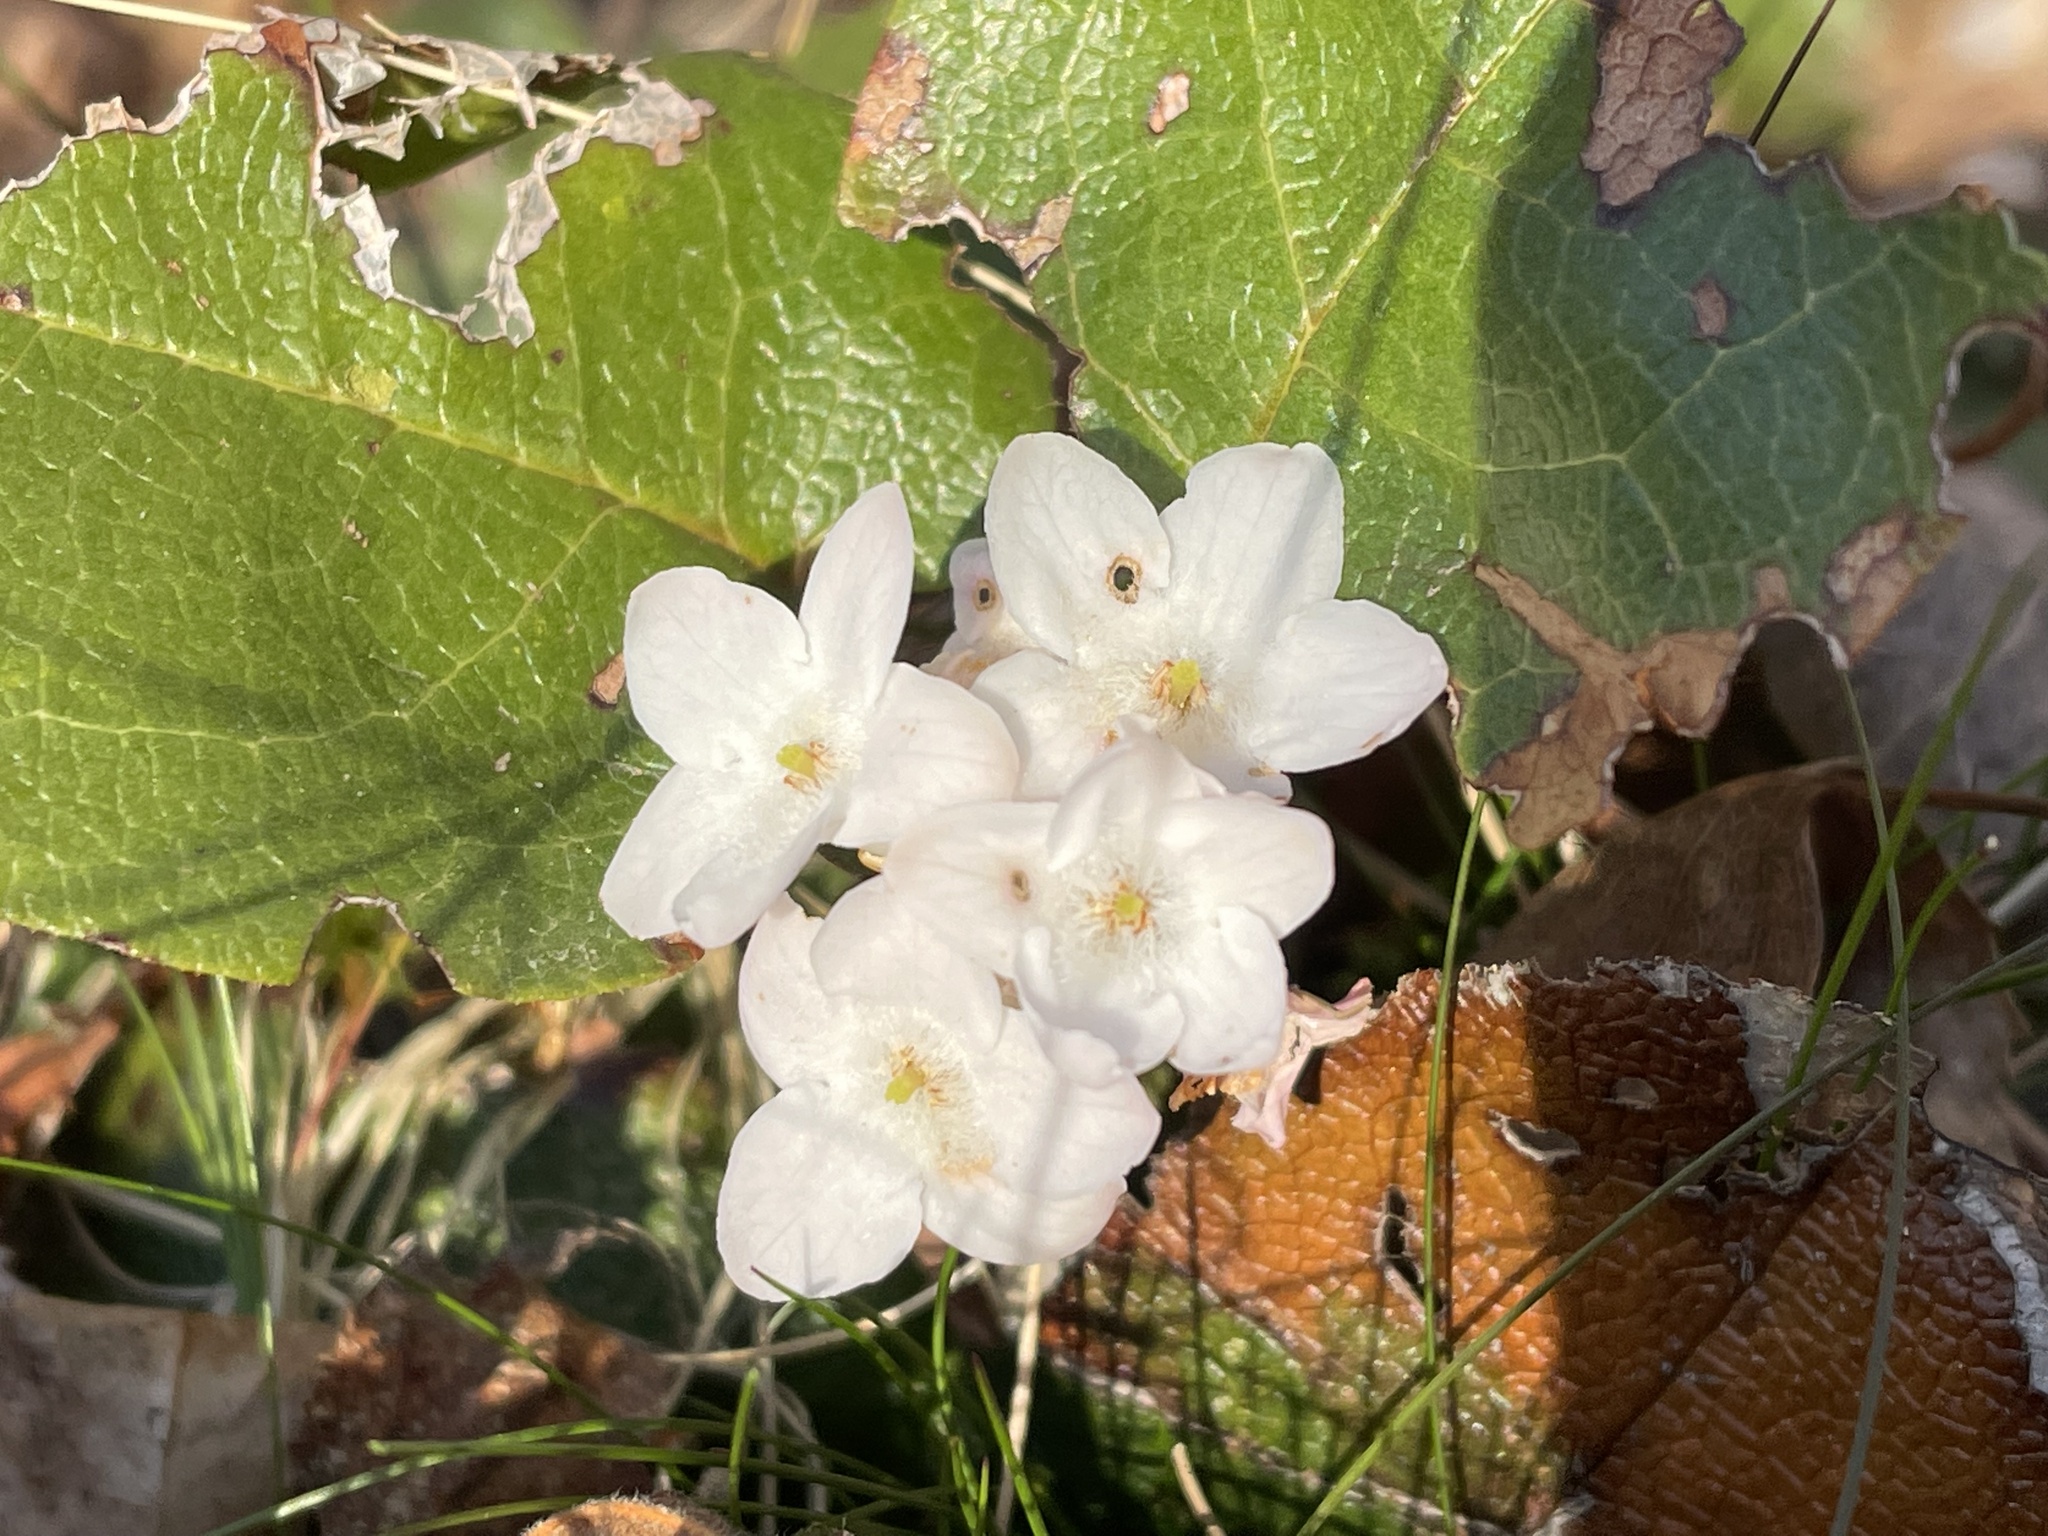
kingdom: Plantae
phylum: Tracheophyta
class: Magnoliopsida
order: Ericales
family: Ericaceae
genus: Epigaea
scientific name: Epigaea repens
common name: Gravelroot
